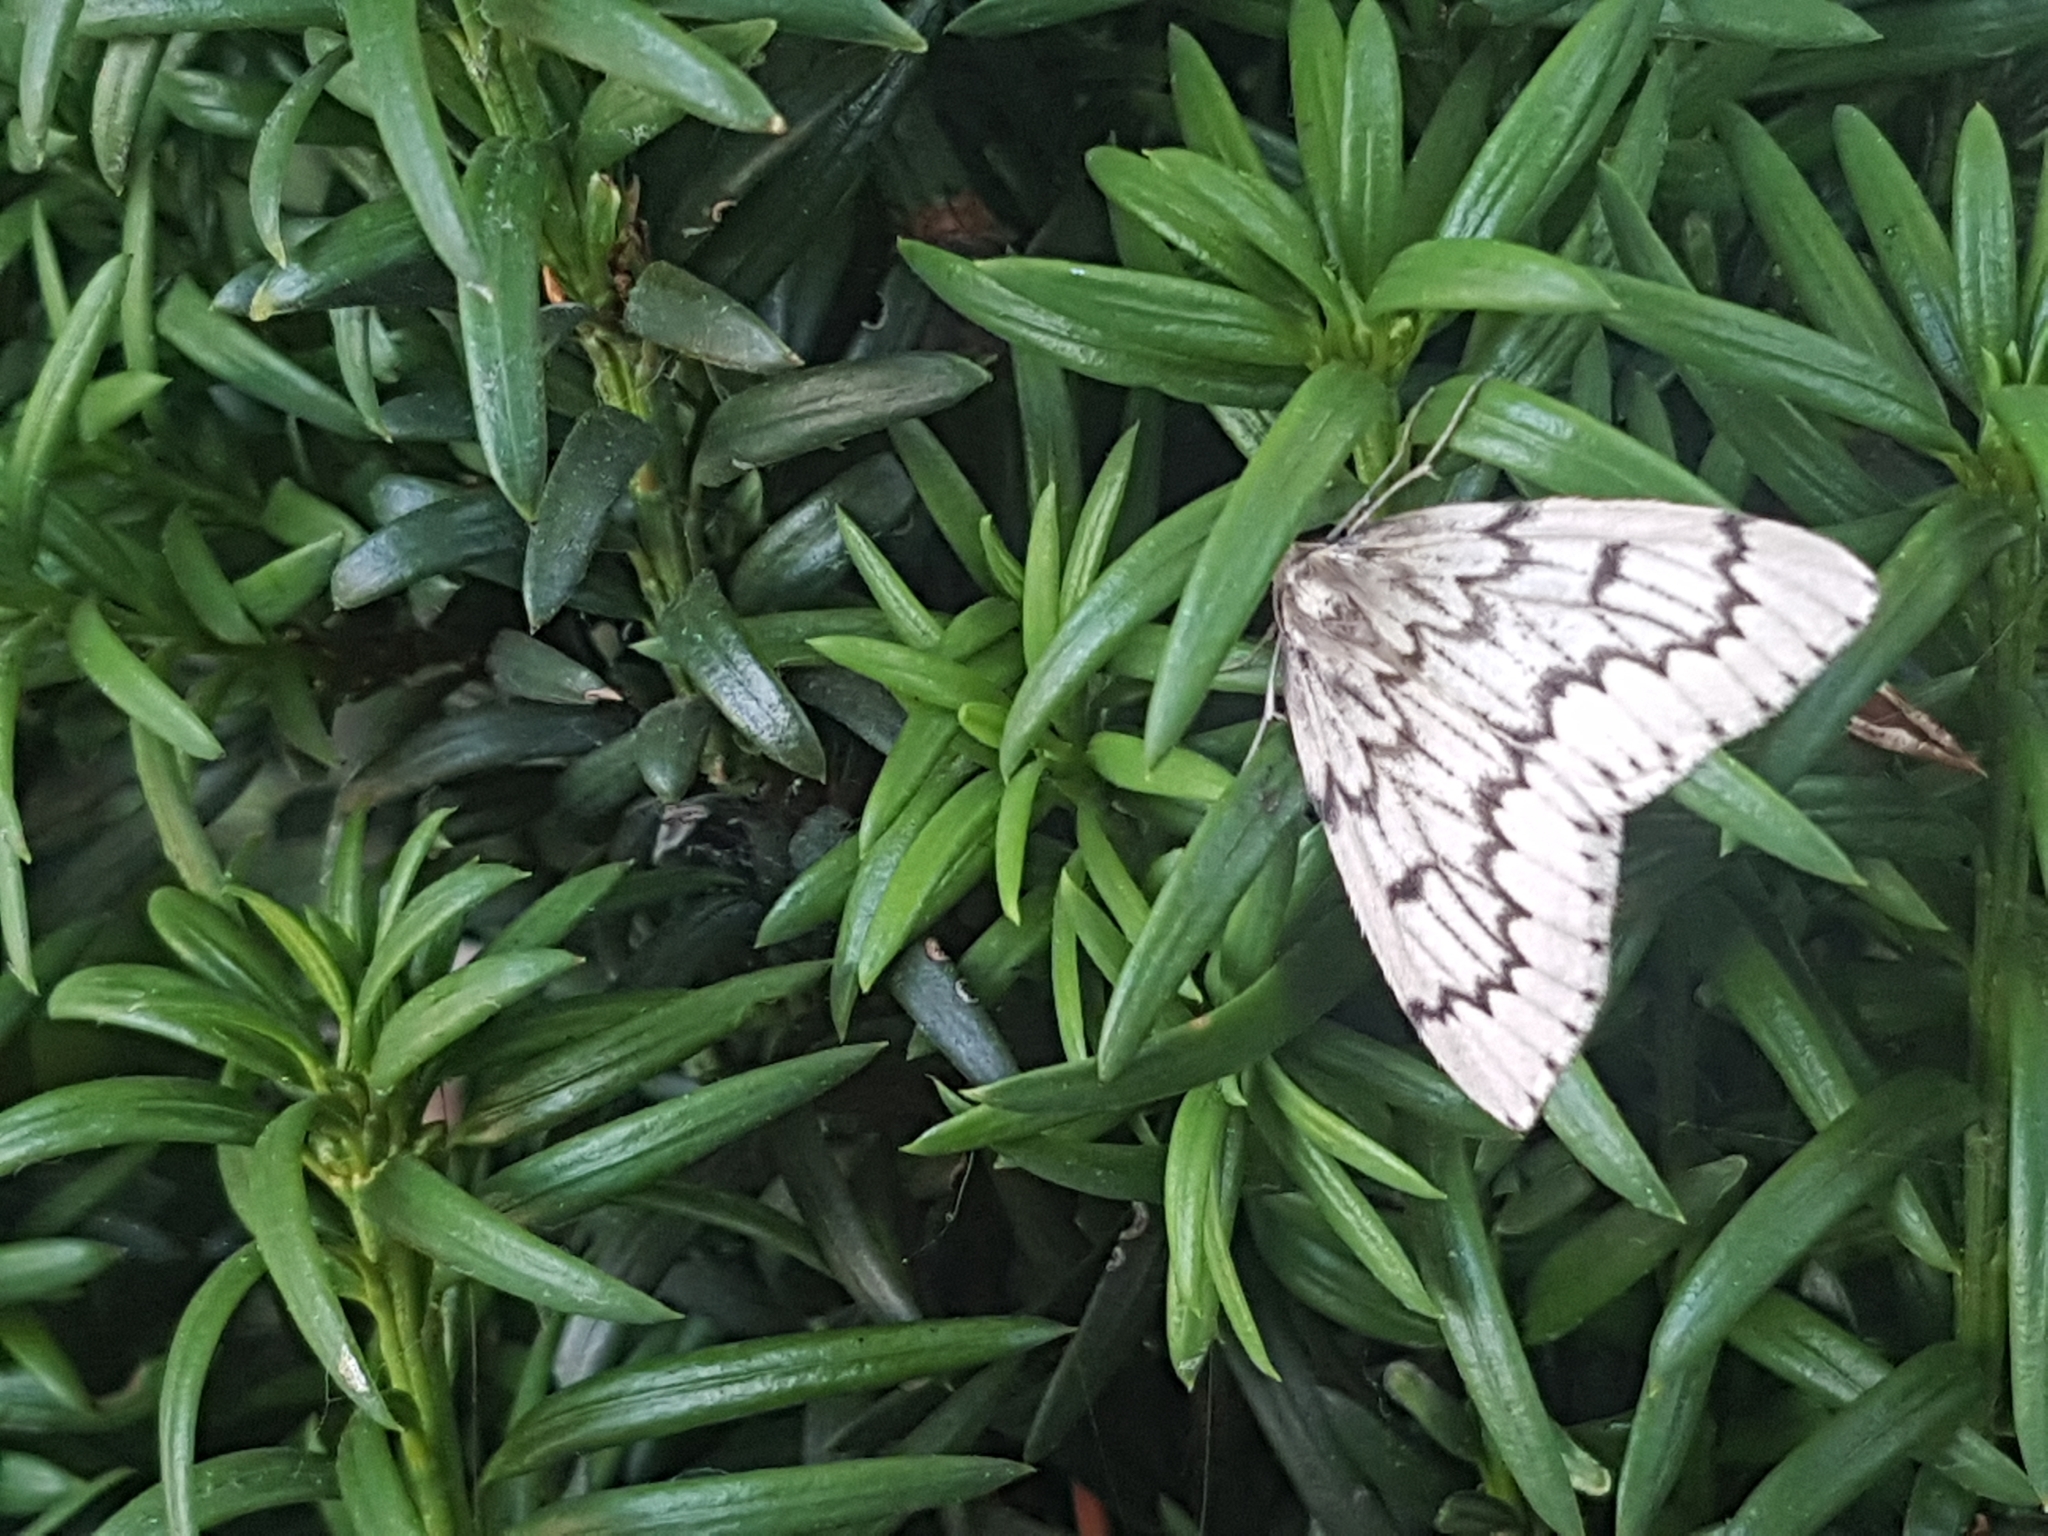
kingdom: Animalia
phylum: Arthropoda
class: Insecta
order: Lepidoptera
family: Geometridae
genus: Nepytia
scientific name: Nepytia phantasmaria
